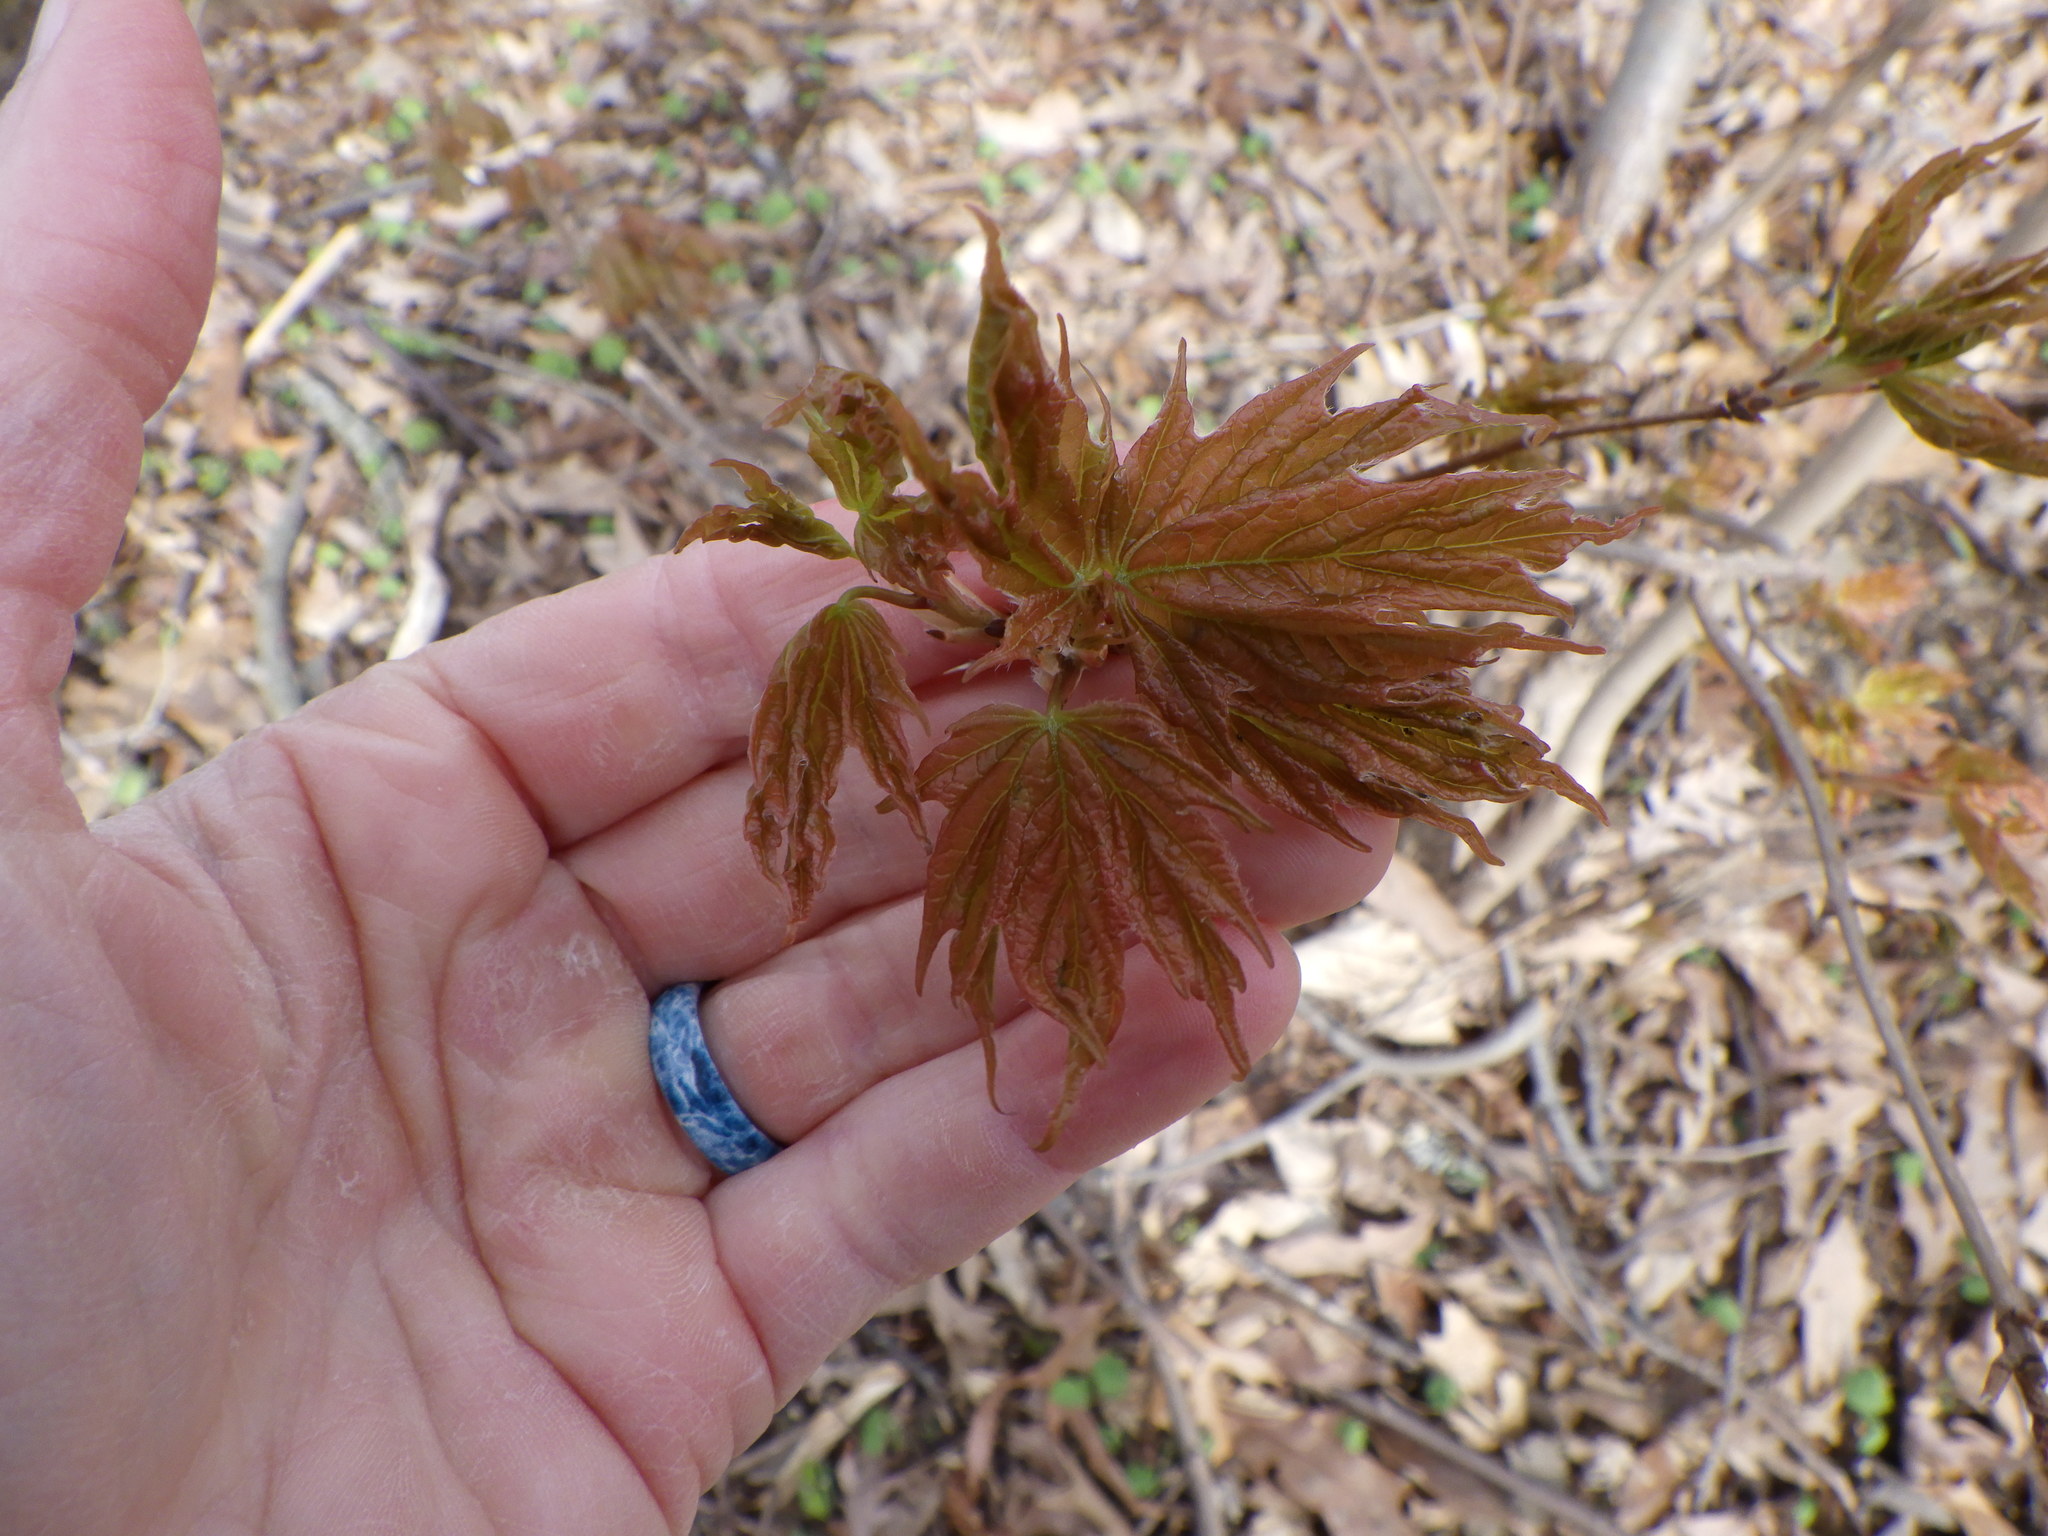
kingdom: Plantae
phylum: Tracheophyta
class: Magnoliopsida
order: Sapindales
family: Sapindaceae
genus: Acer
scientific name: Acer saccharum
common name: Sugar maple
